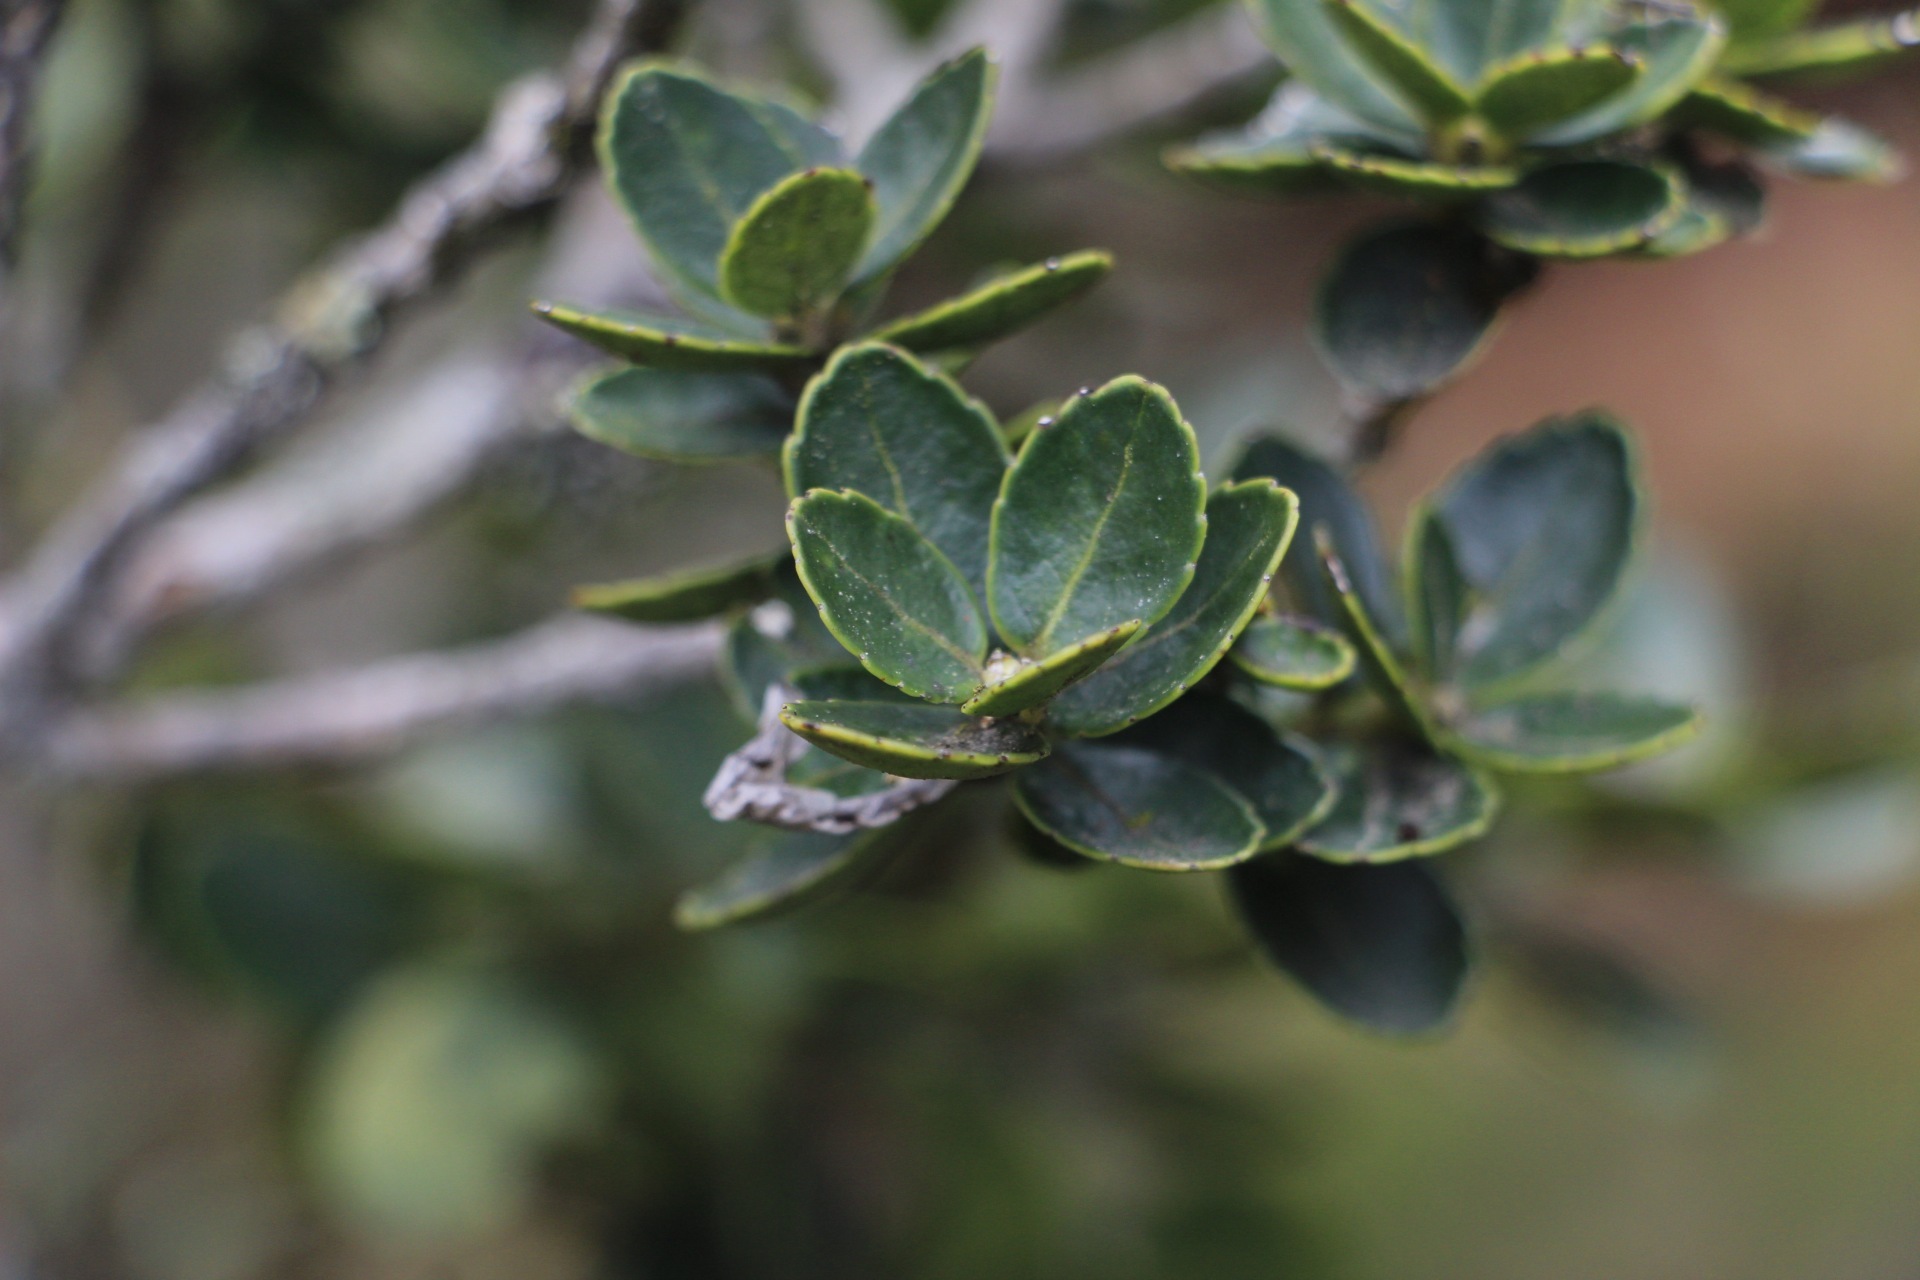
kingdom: Plantae
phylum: Tracheophyta
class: Magnoliopsida
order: Aquifoliales
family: Aquifoliaceae
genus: Ilex
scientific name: Ilex microphylla
